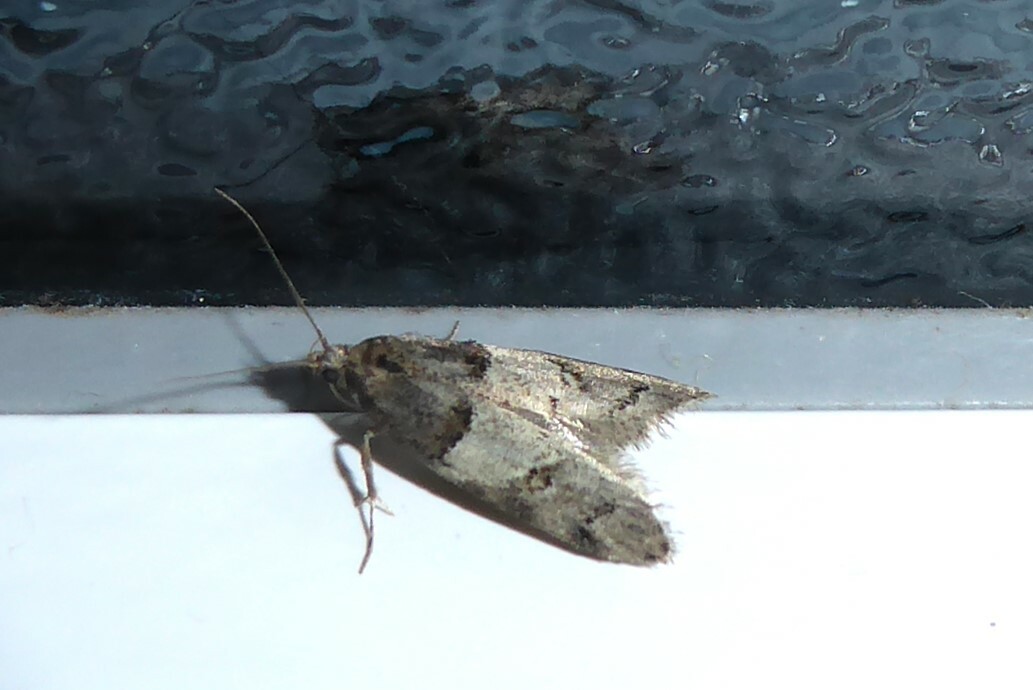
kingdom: Animalia
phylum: Arthropoda
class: Insecta
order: Lepidoptera
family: Oecophoridae
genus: Trachypepla
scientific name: Trachypepla contritella
